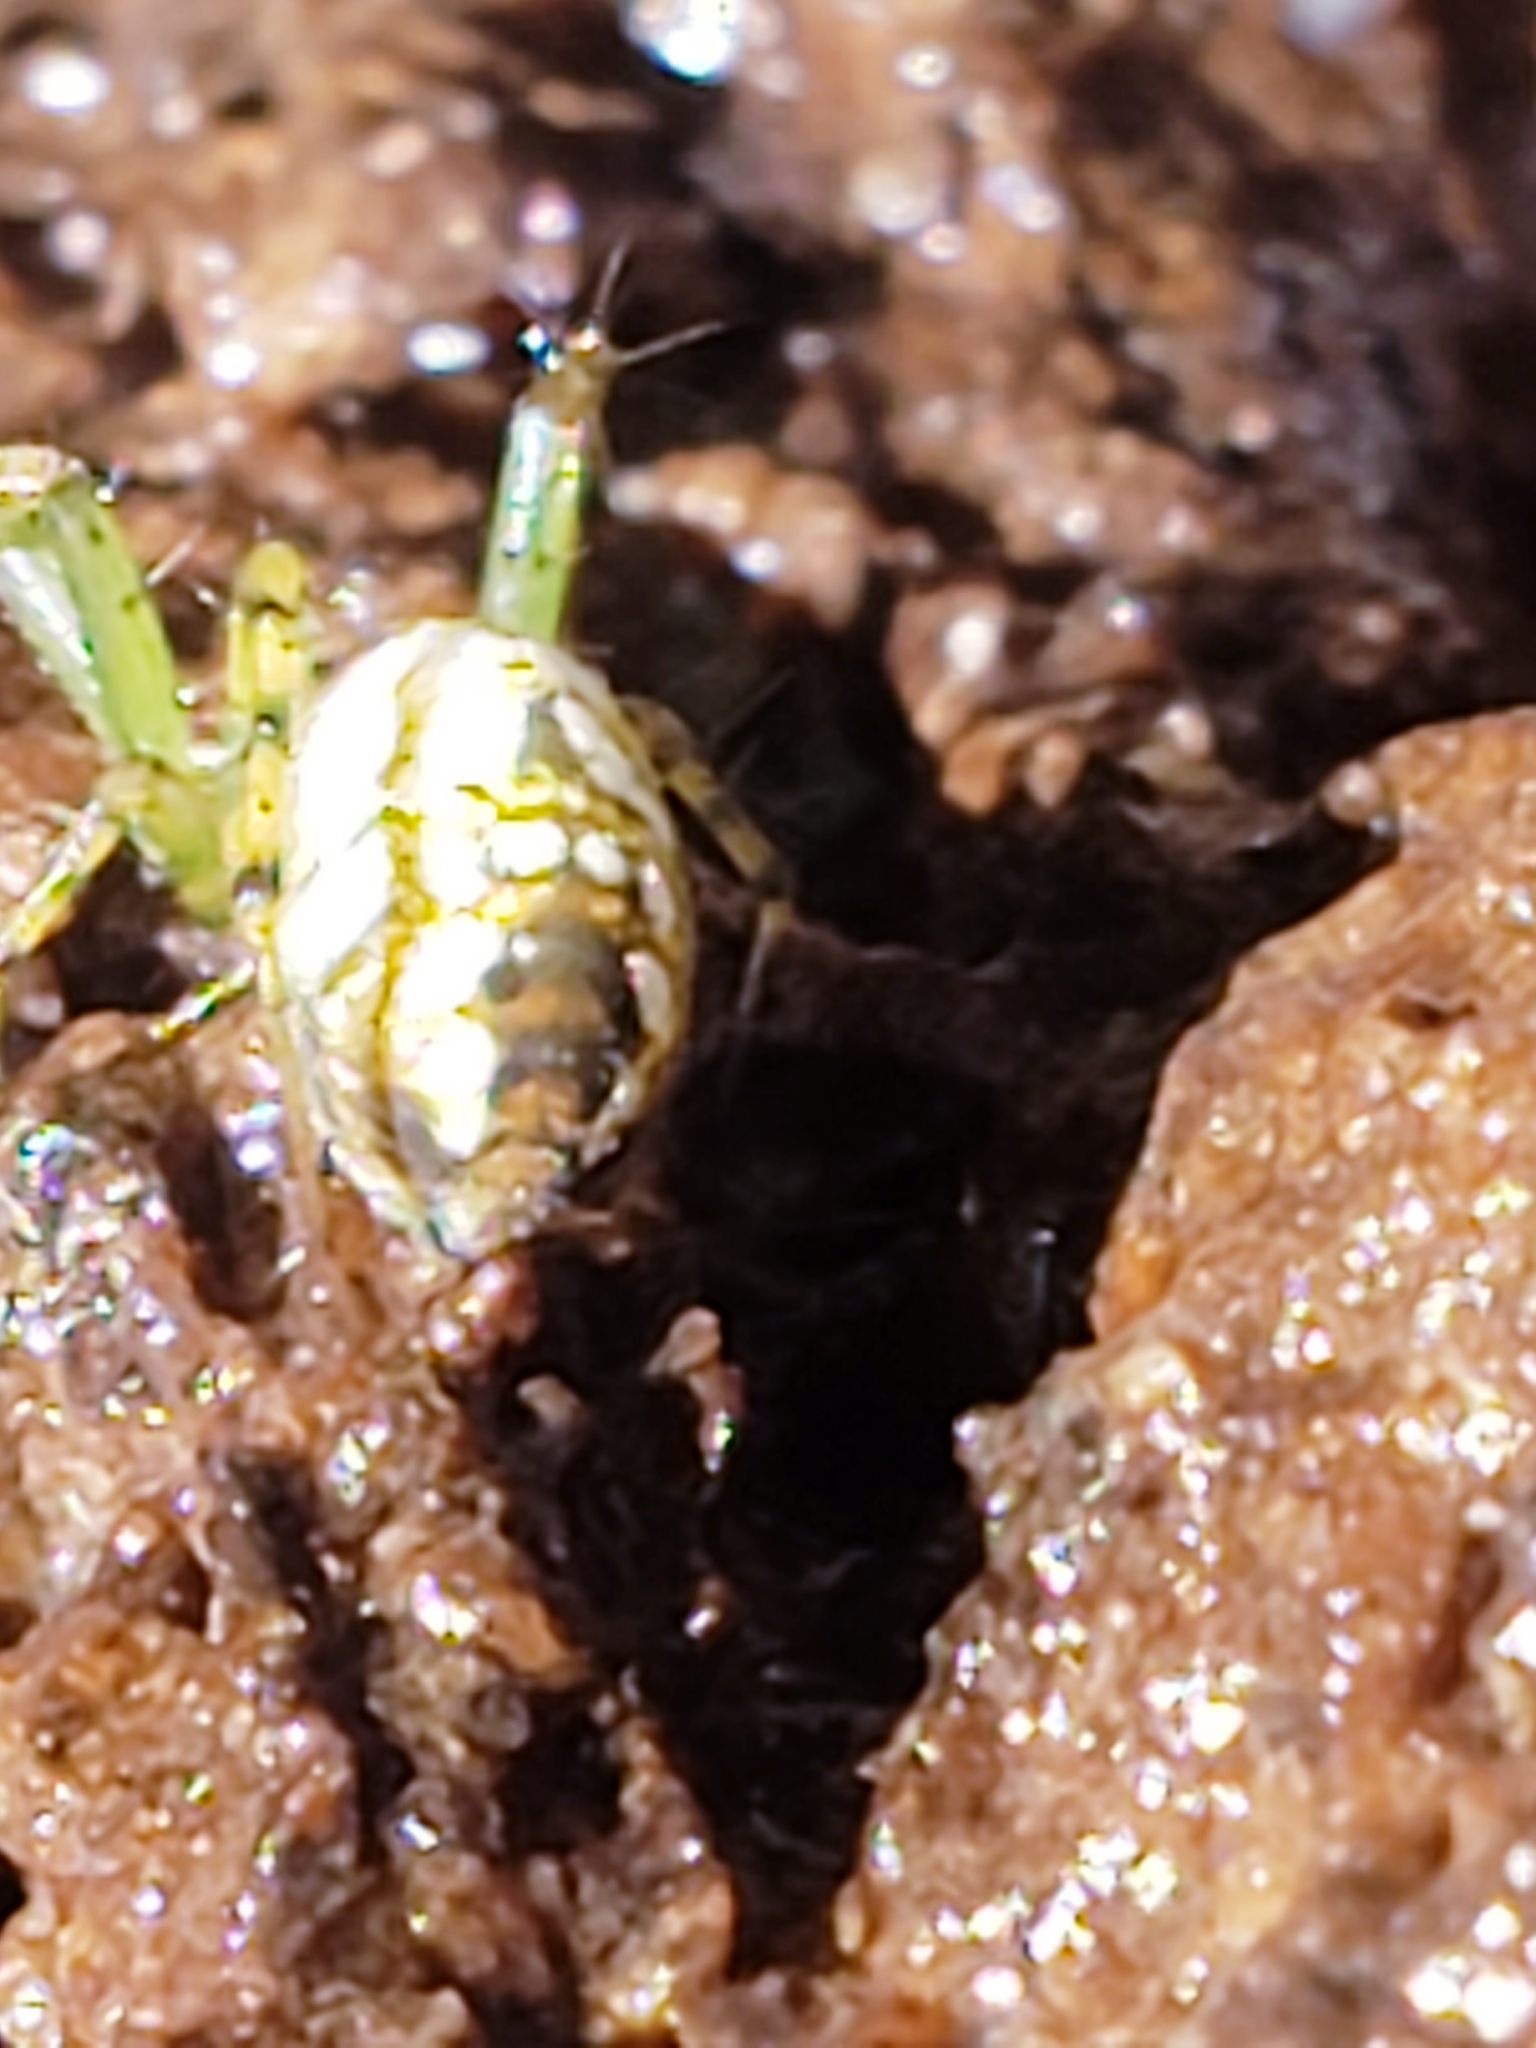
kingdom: Animalia
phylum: Arthropoda
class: Arachnida
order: Araneae
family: Araneidae
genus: Mangora
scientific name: Mangora spiculata
